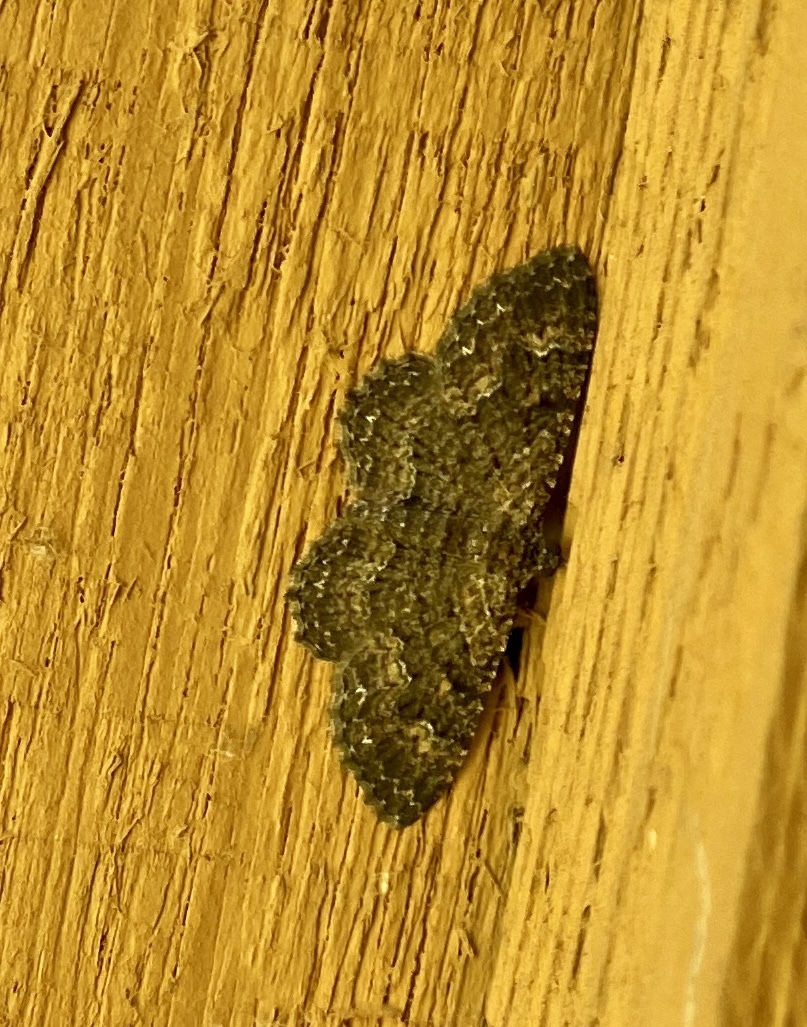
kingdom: Animalia
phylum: Arthropoda
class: Insecta
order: Lepidoptera
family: Geometridae
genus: Disclisioprocta
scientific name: Disclisioprocta stellata
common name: Somber carpet
